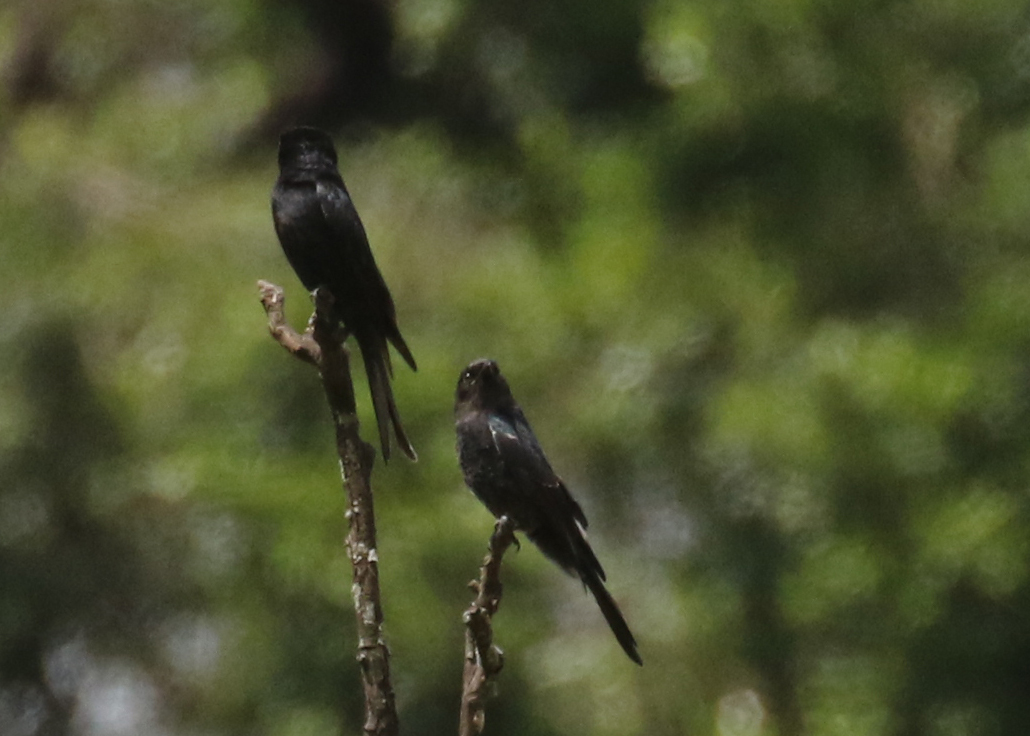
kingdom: Animalia
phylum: Chordata
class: Aves
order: Passeriformes
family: Dicruridae
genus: Dicrurus
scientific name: Dicrurus adsimilis
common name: Fork-tailed drongo
